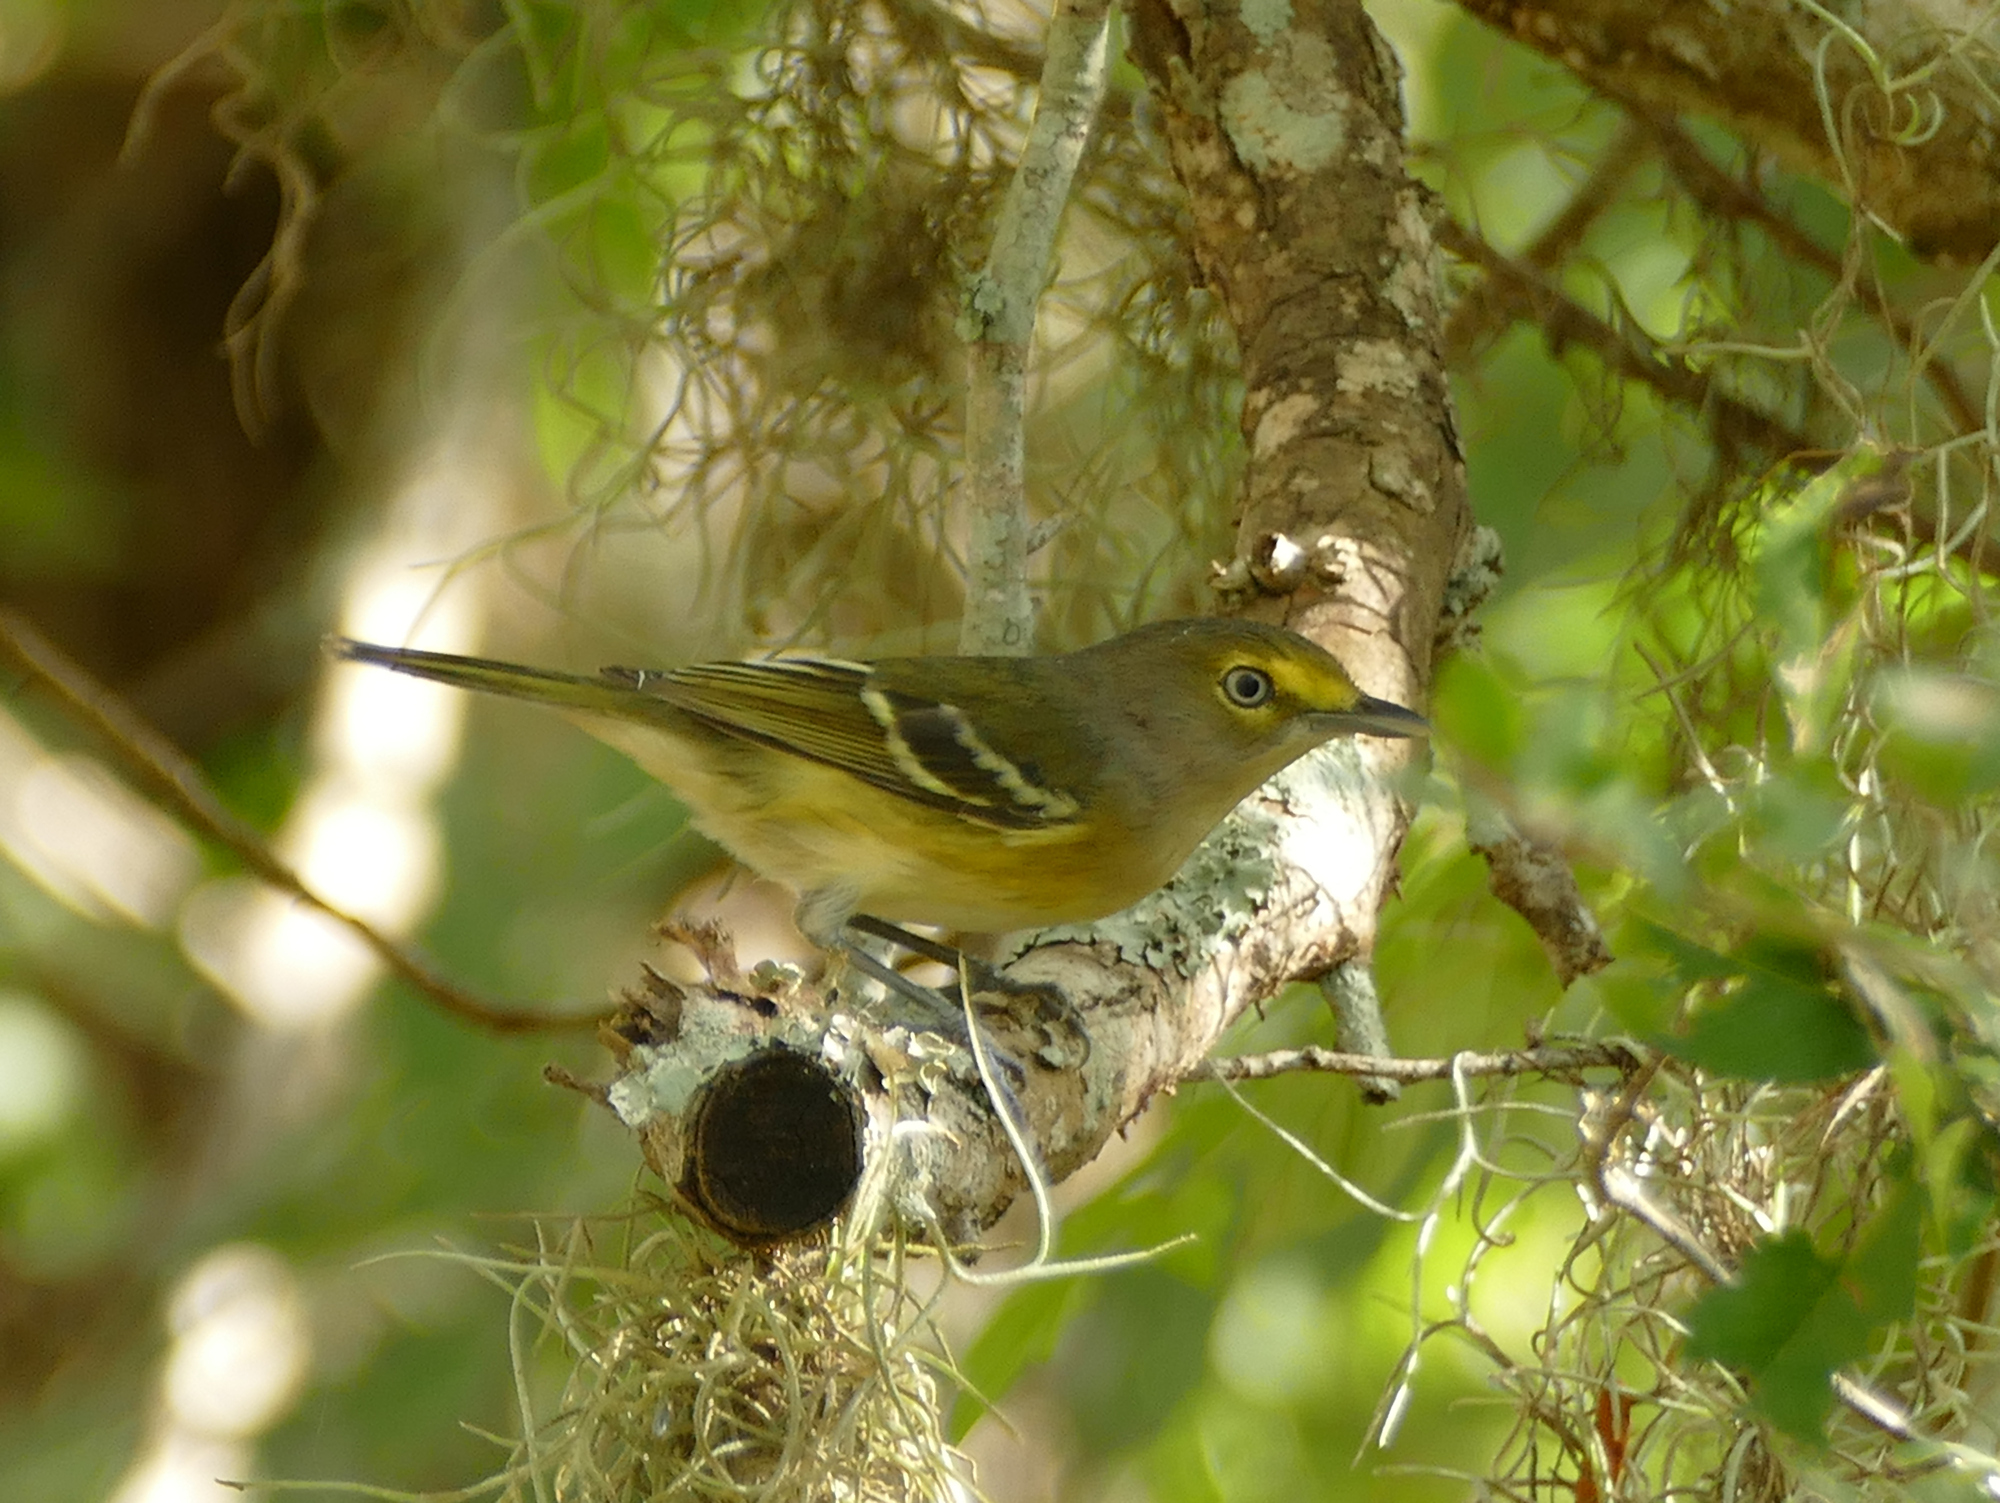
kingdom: Animalia
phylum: Chordata
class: Aves
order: Passeriformes
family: Vireonidae
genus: Vireo
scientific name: Vireo griseus
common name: White-eyed vireo
